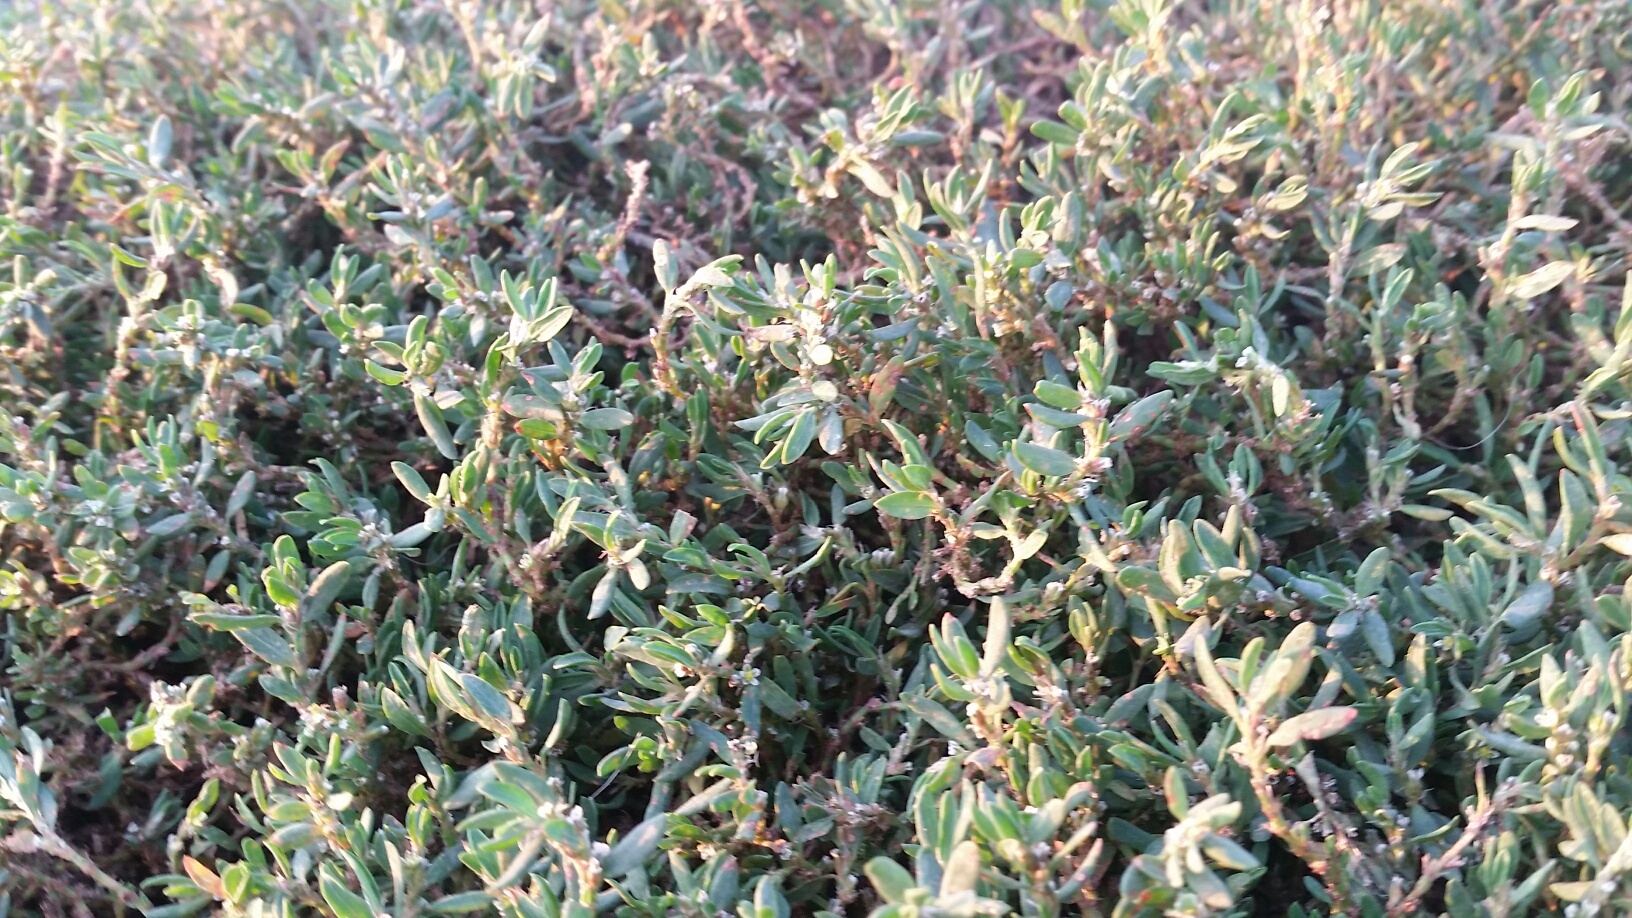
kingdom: Plantae
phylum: Tracheophyta
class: Magnoliopsida
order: Lamiales
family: Verbenaceae
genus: Phyla
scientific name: Phyla nodiflora
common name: Frogfruit
